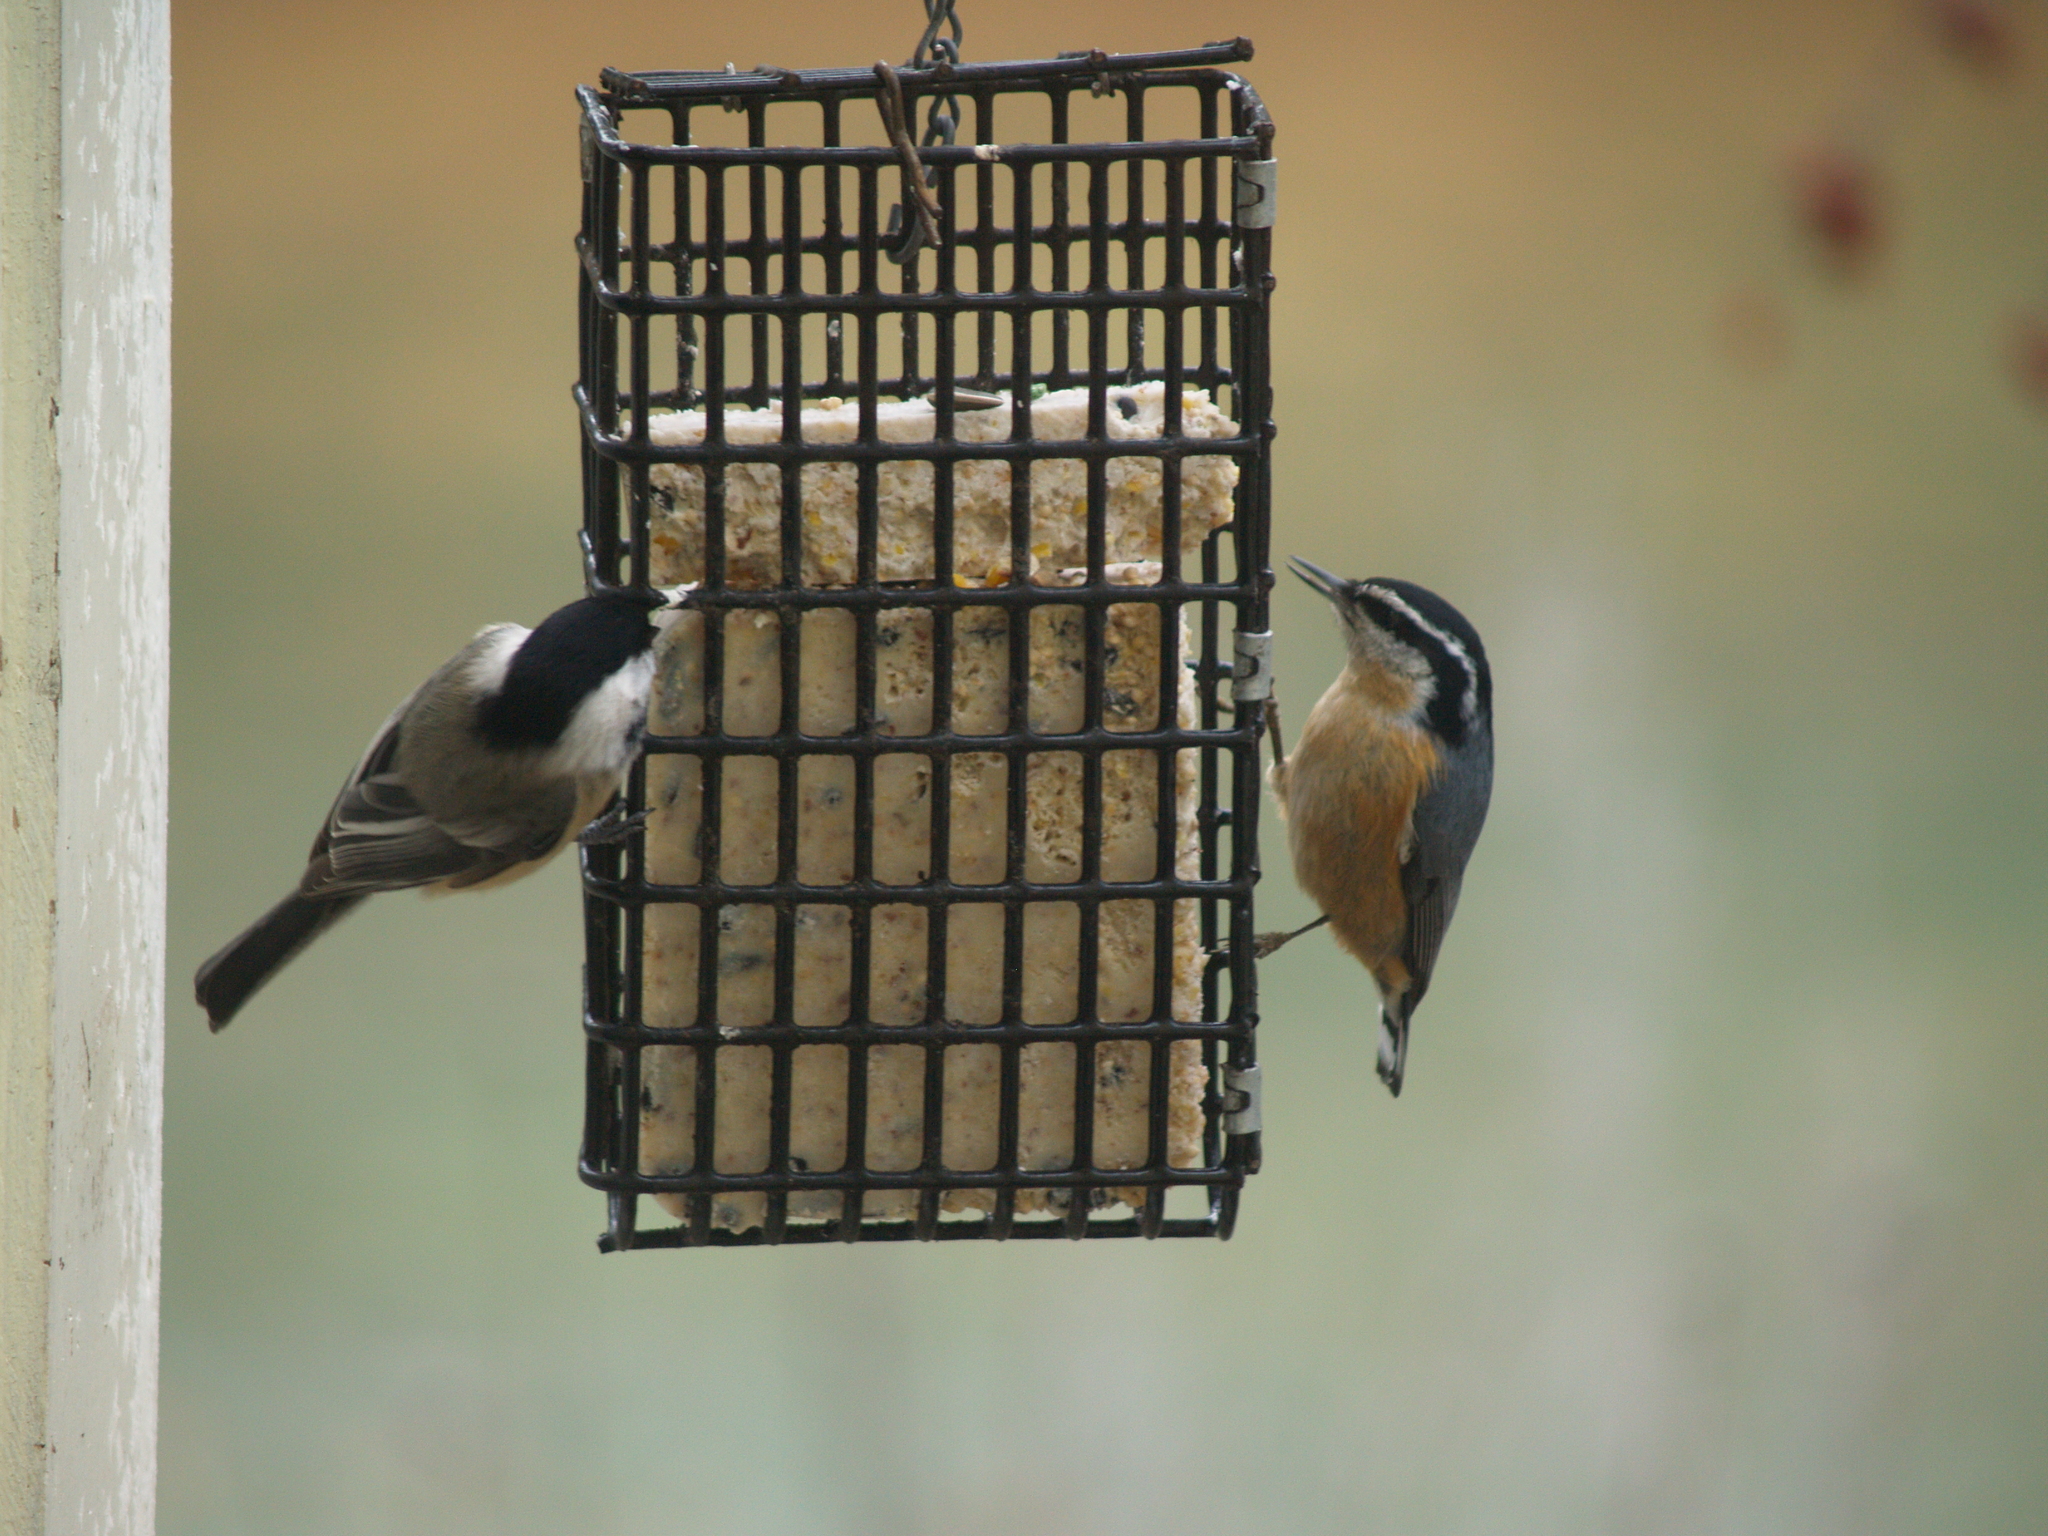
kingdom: Animalia
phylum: Chordata
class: Aves
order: Passeriformes
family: Paridae
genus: Poecile
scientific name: Poecile atricapillus
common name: Black-capped chickadee
